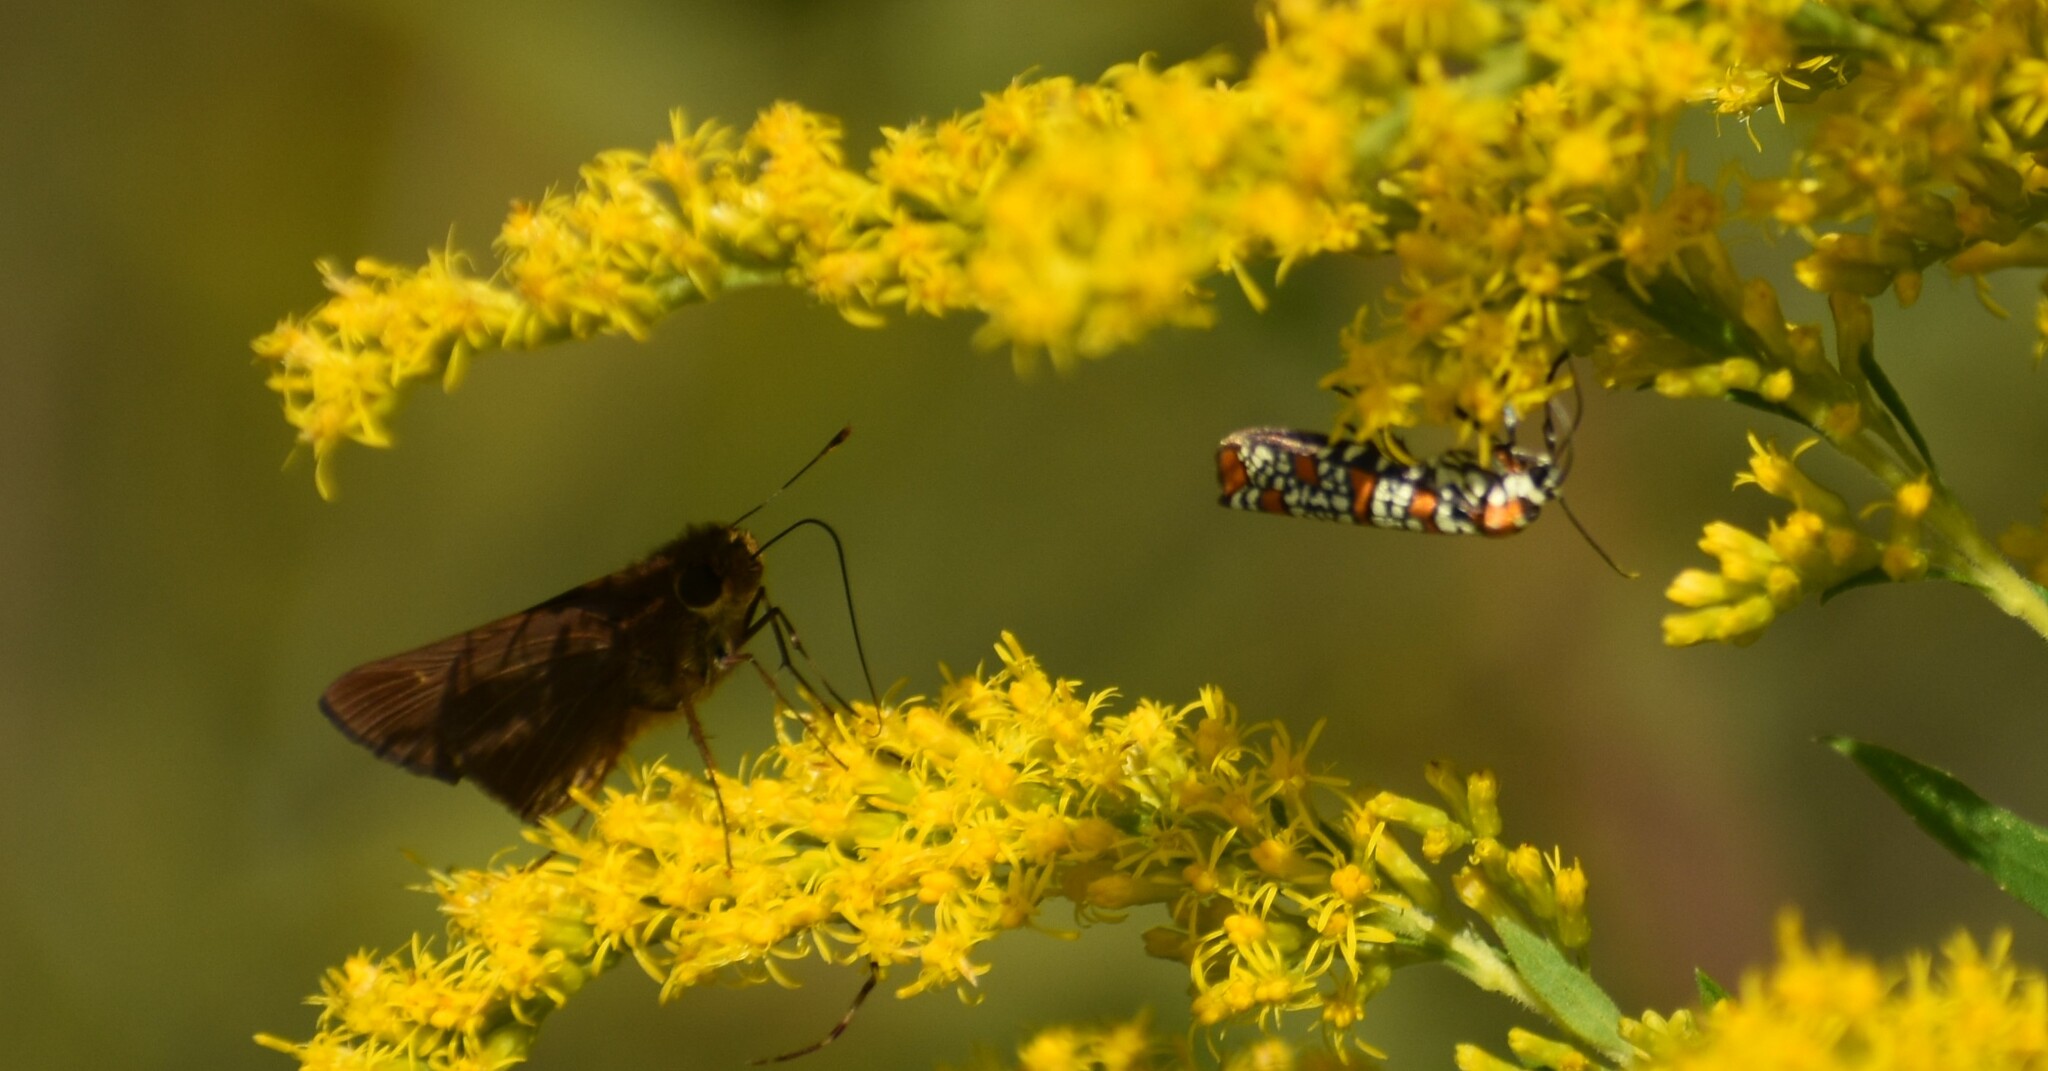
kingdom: Animalia
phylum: Arthropoda
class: Insecta
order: Lepidoptera
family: Attevidae
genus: Atteva
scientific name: Atteva punctella
